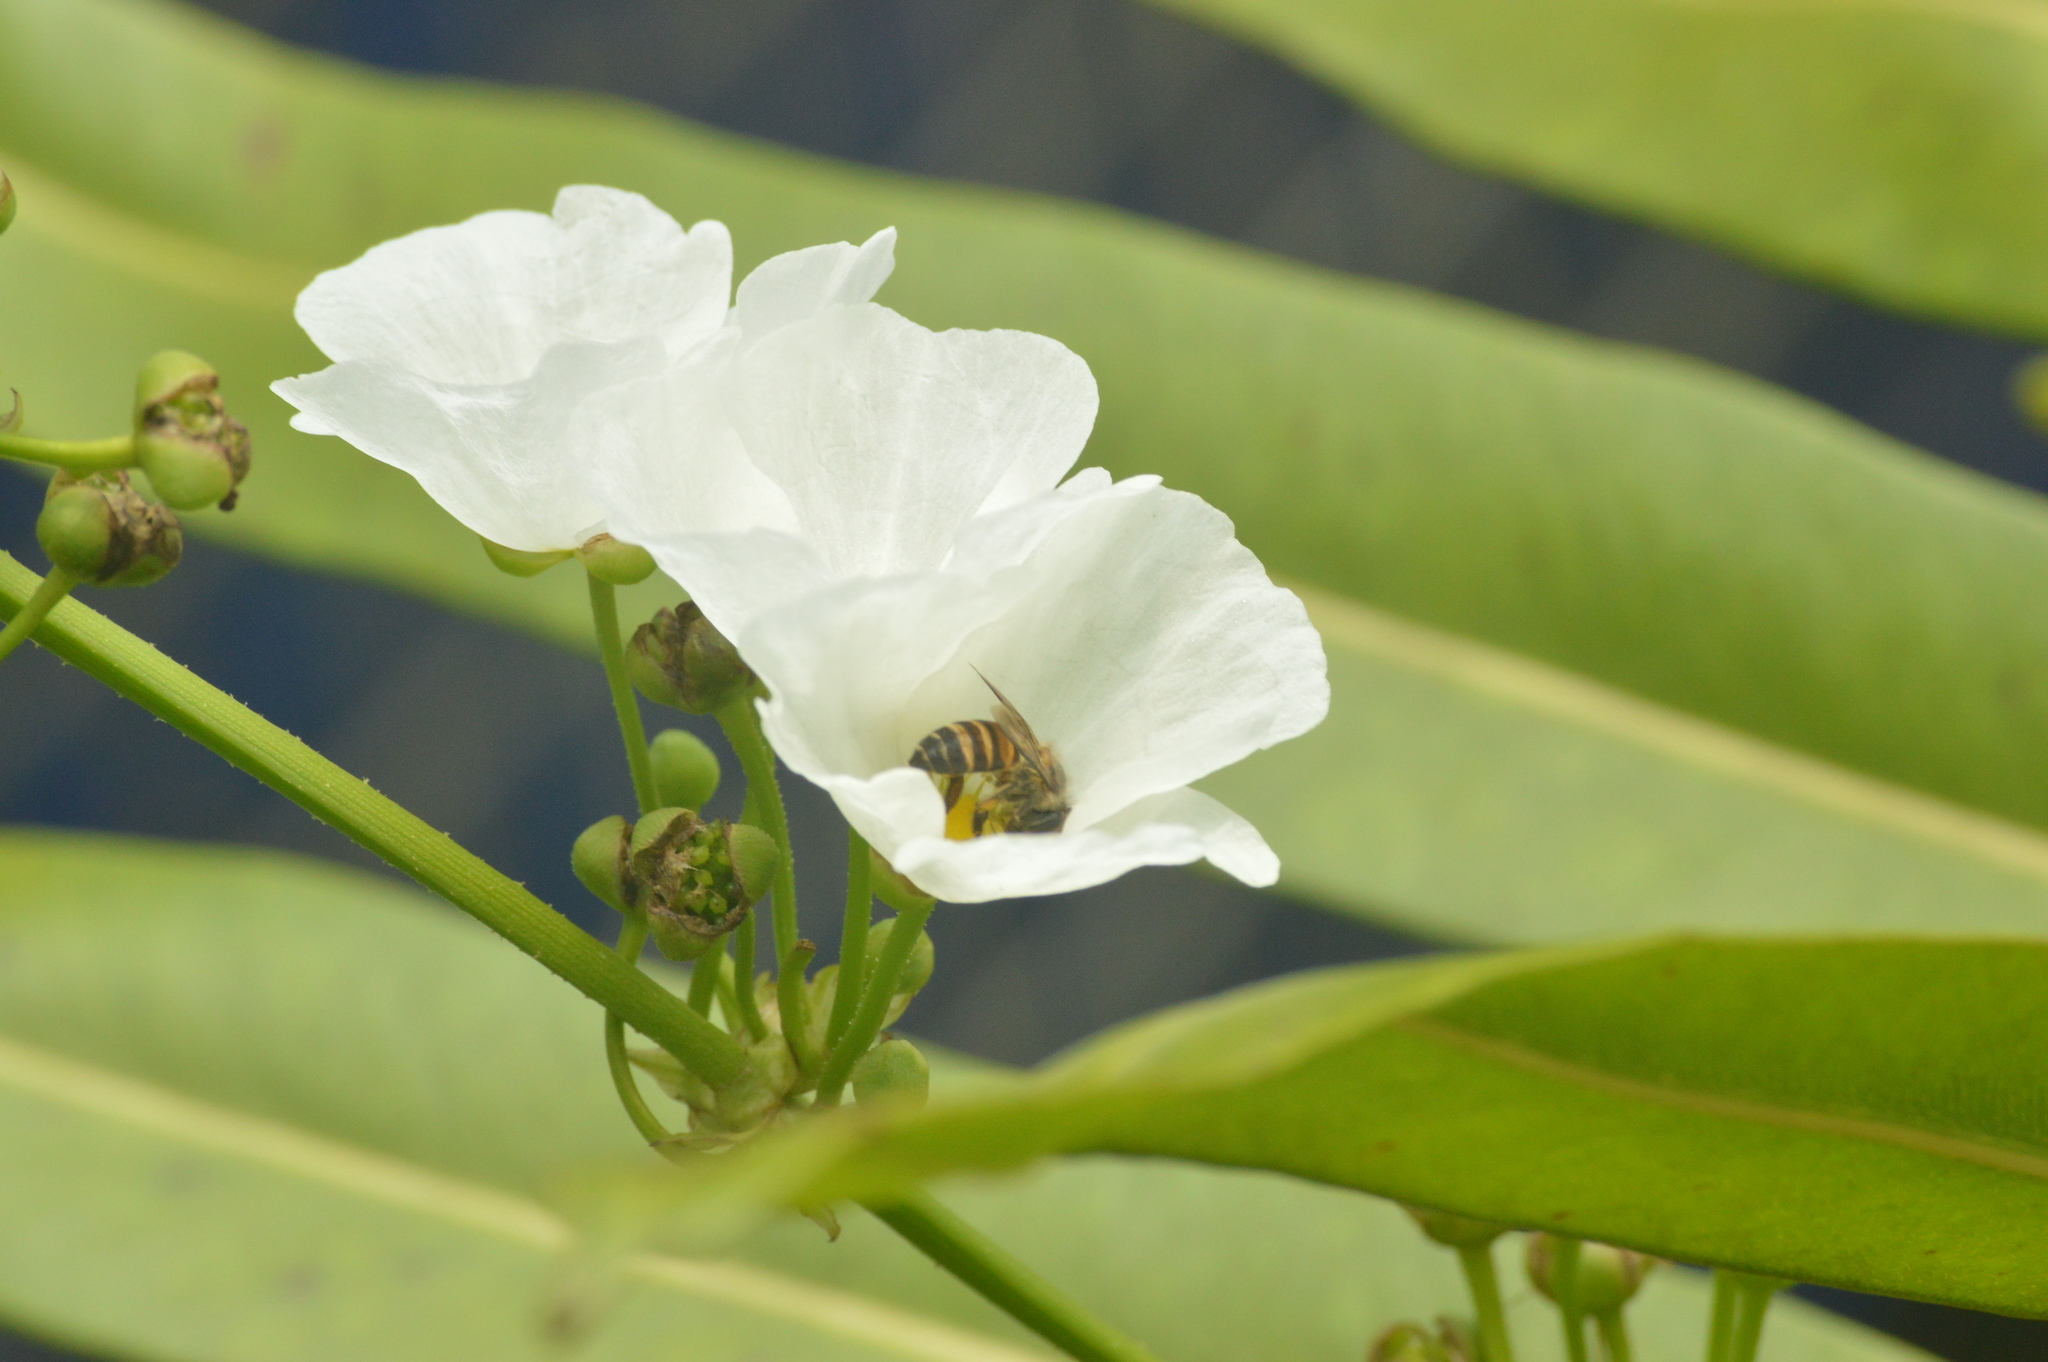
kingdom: Animalia
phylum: Arthropoda
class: Insecta
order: Hymenoptera
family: Apidae
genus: Apis
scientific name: Apis cerana
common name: Honey bee
